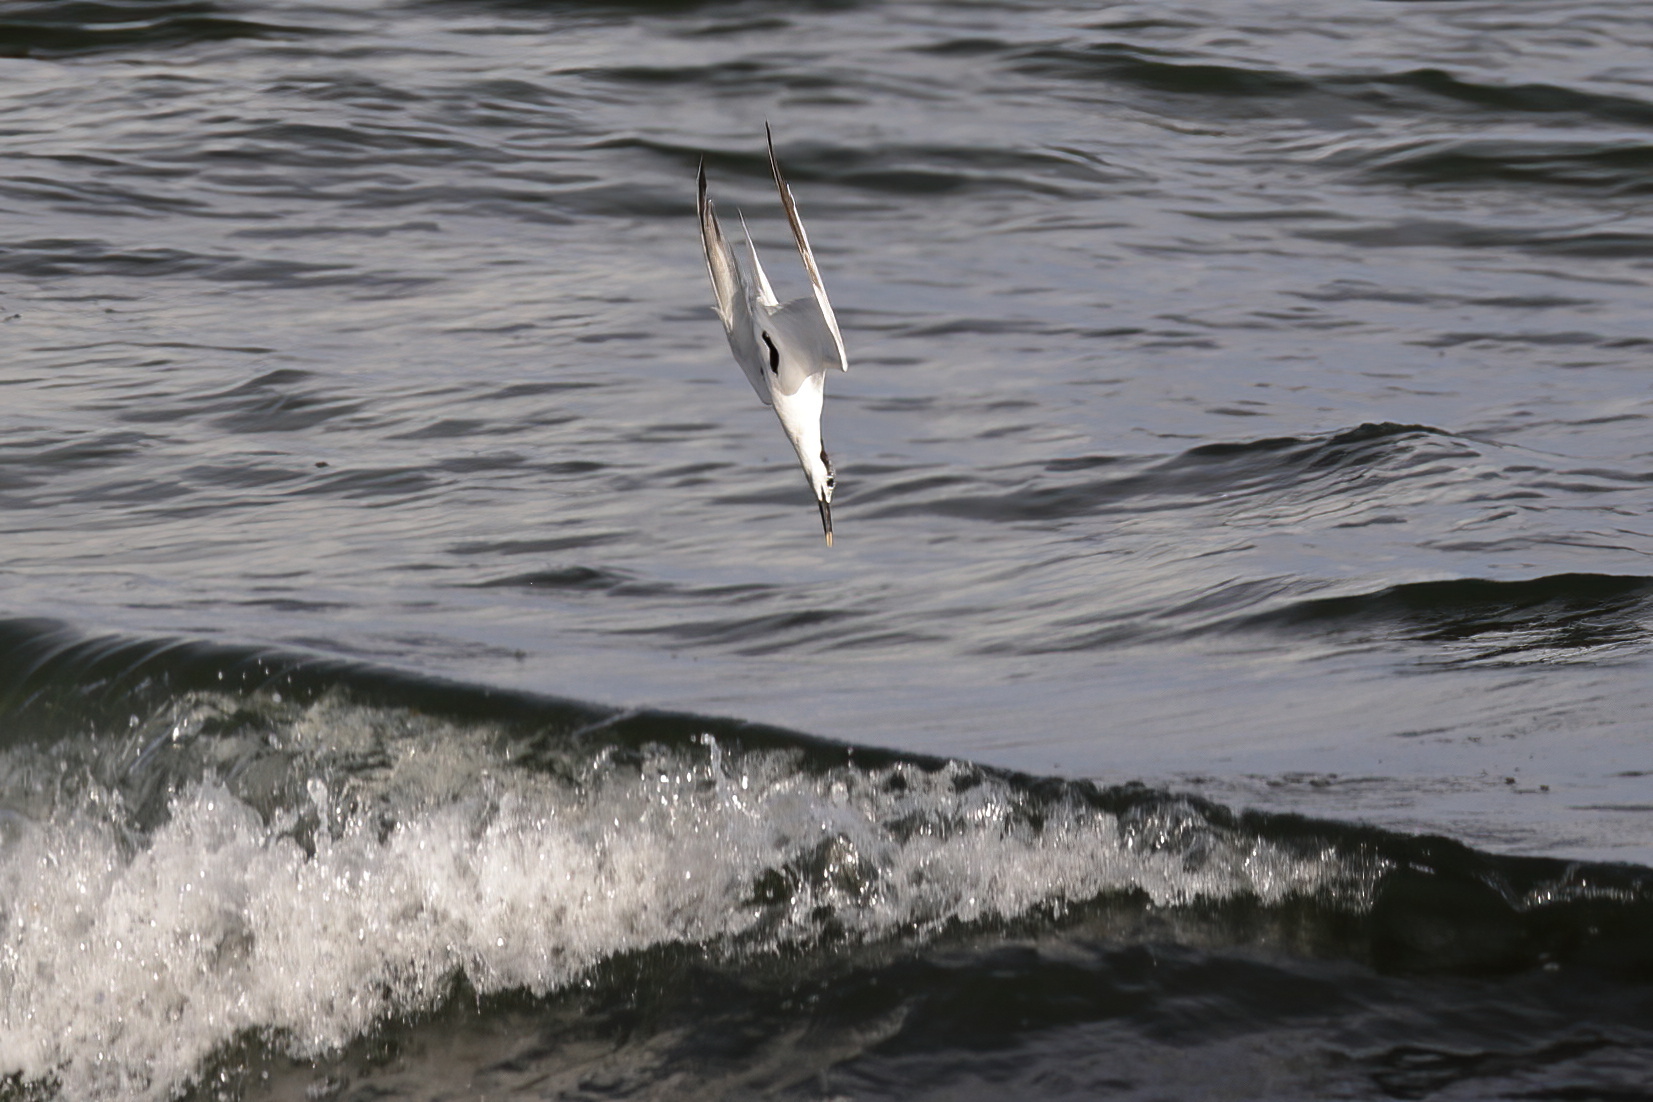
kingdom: Animalia
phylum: Chordata
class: Aves
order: Charadriiformes
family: Laridae
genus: Thalasseus
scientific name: Thalasseus sandvicensis
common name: Sandwich tern
